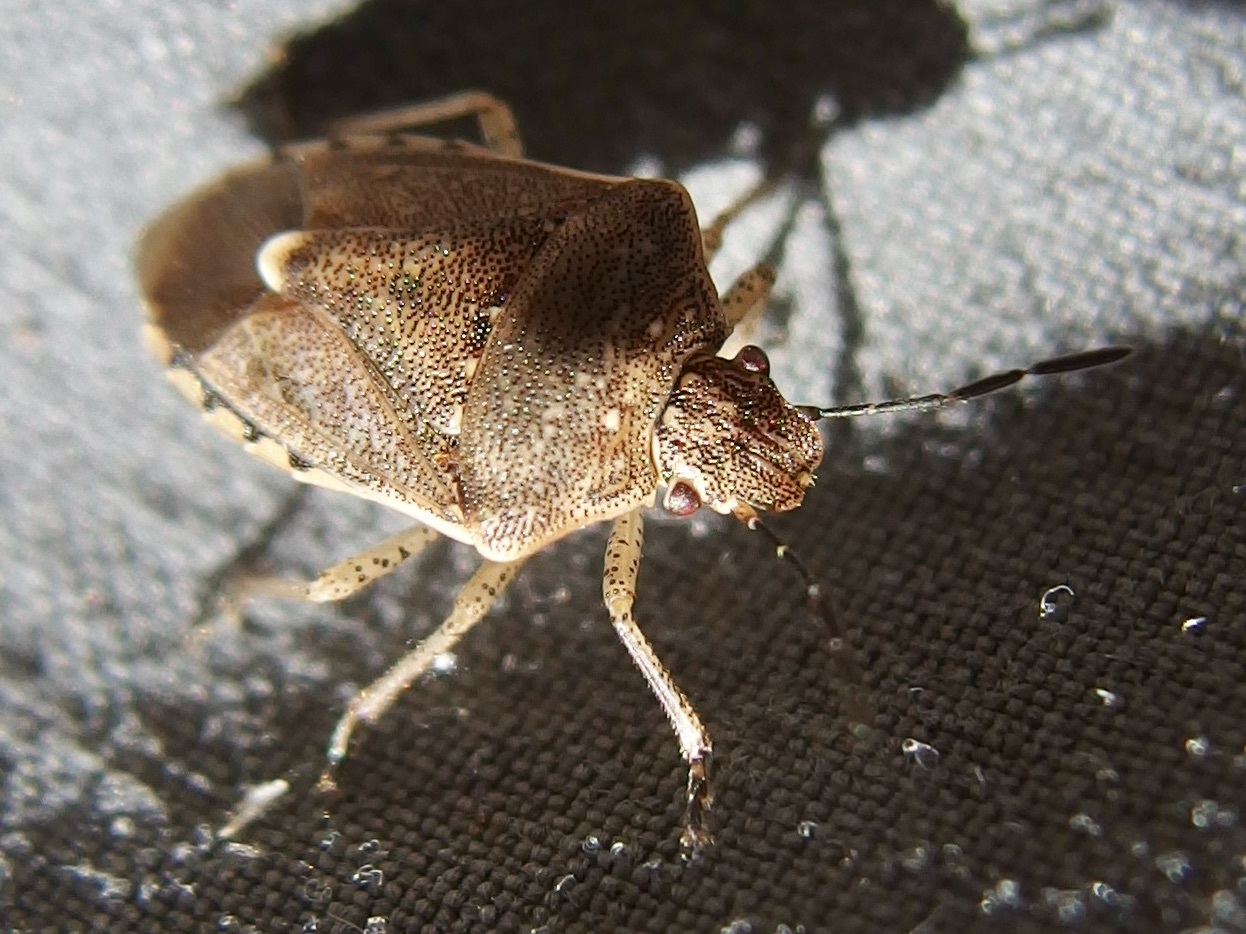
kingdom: Animalia
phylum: Arthropoda
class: Insecta
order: Hemiptera
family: Pentatomidae
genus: Moromorpha
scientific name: Moromorpha tetra
